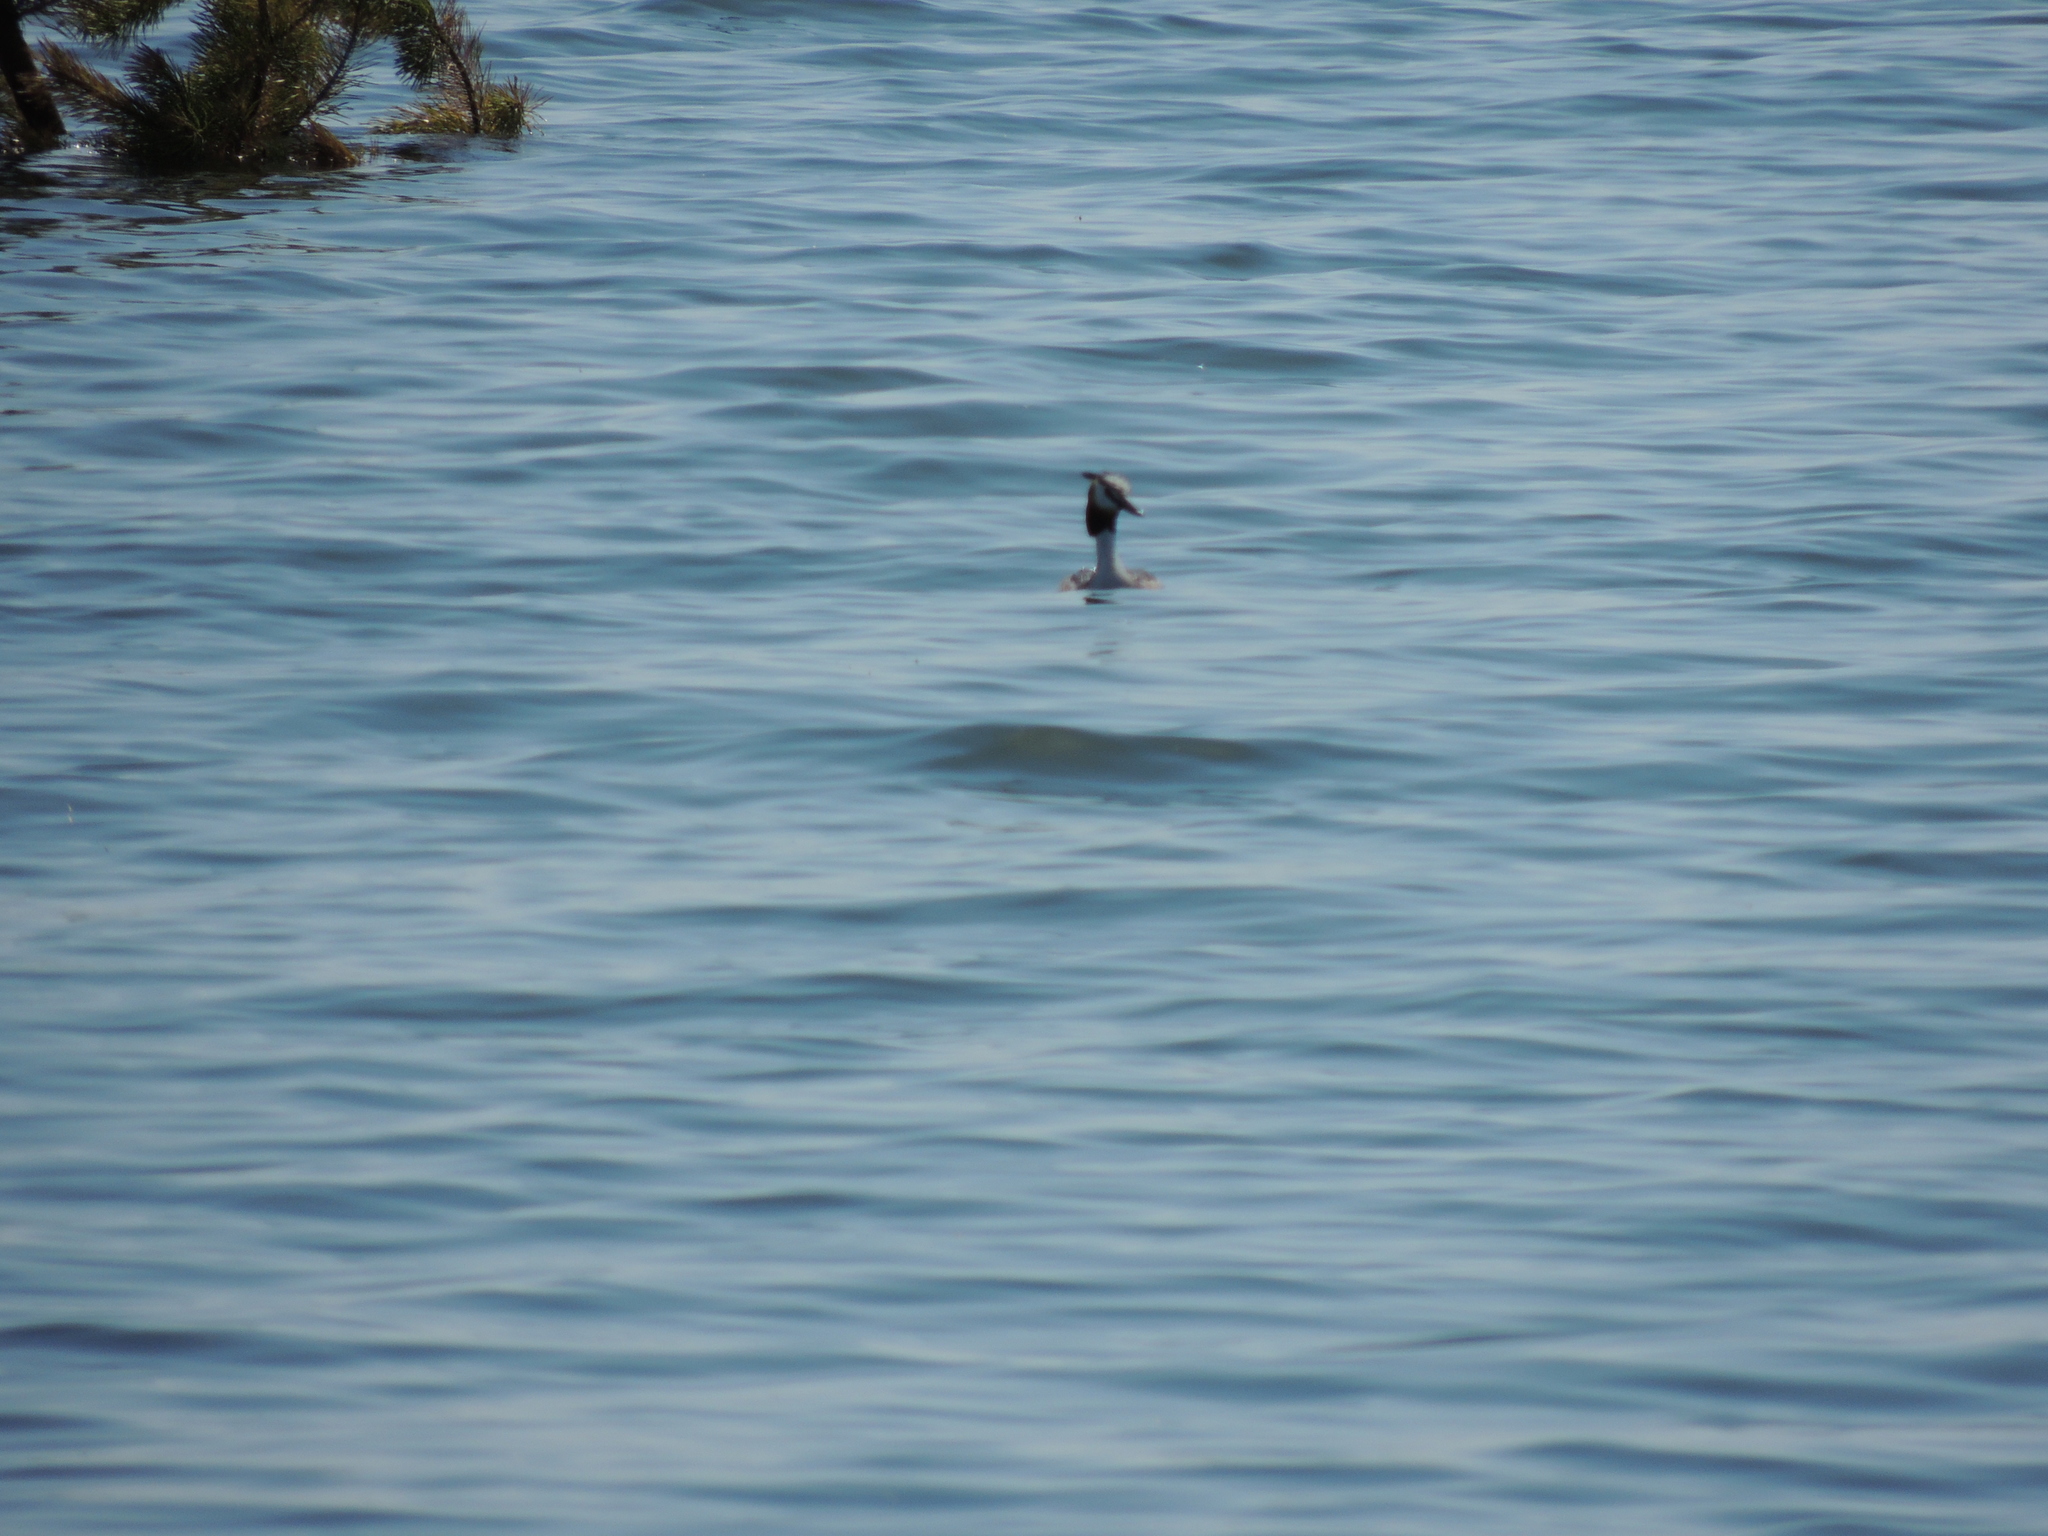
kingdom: Animalia
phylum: Chordata
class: Aves
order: Podicipediformes
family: Podicipedidae
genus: Podiceps
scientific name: Podiceps cristatus
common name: Great crested grebe
